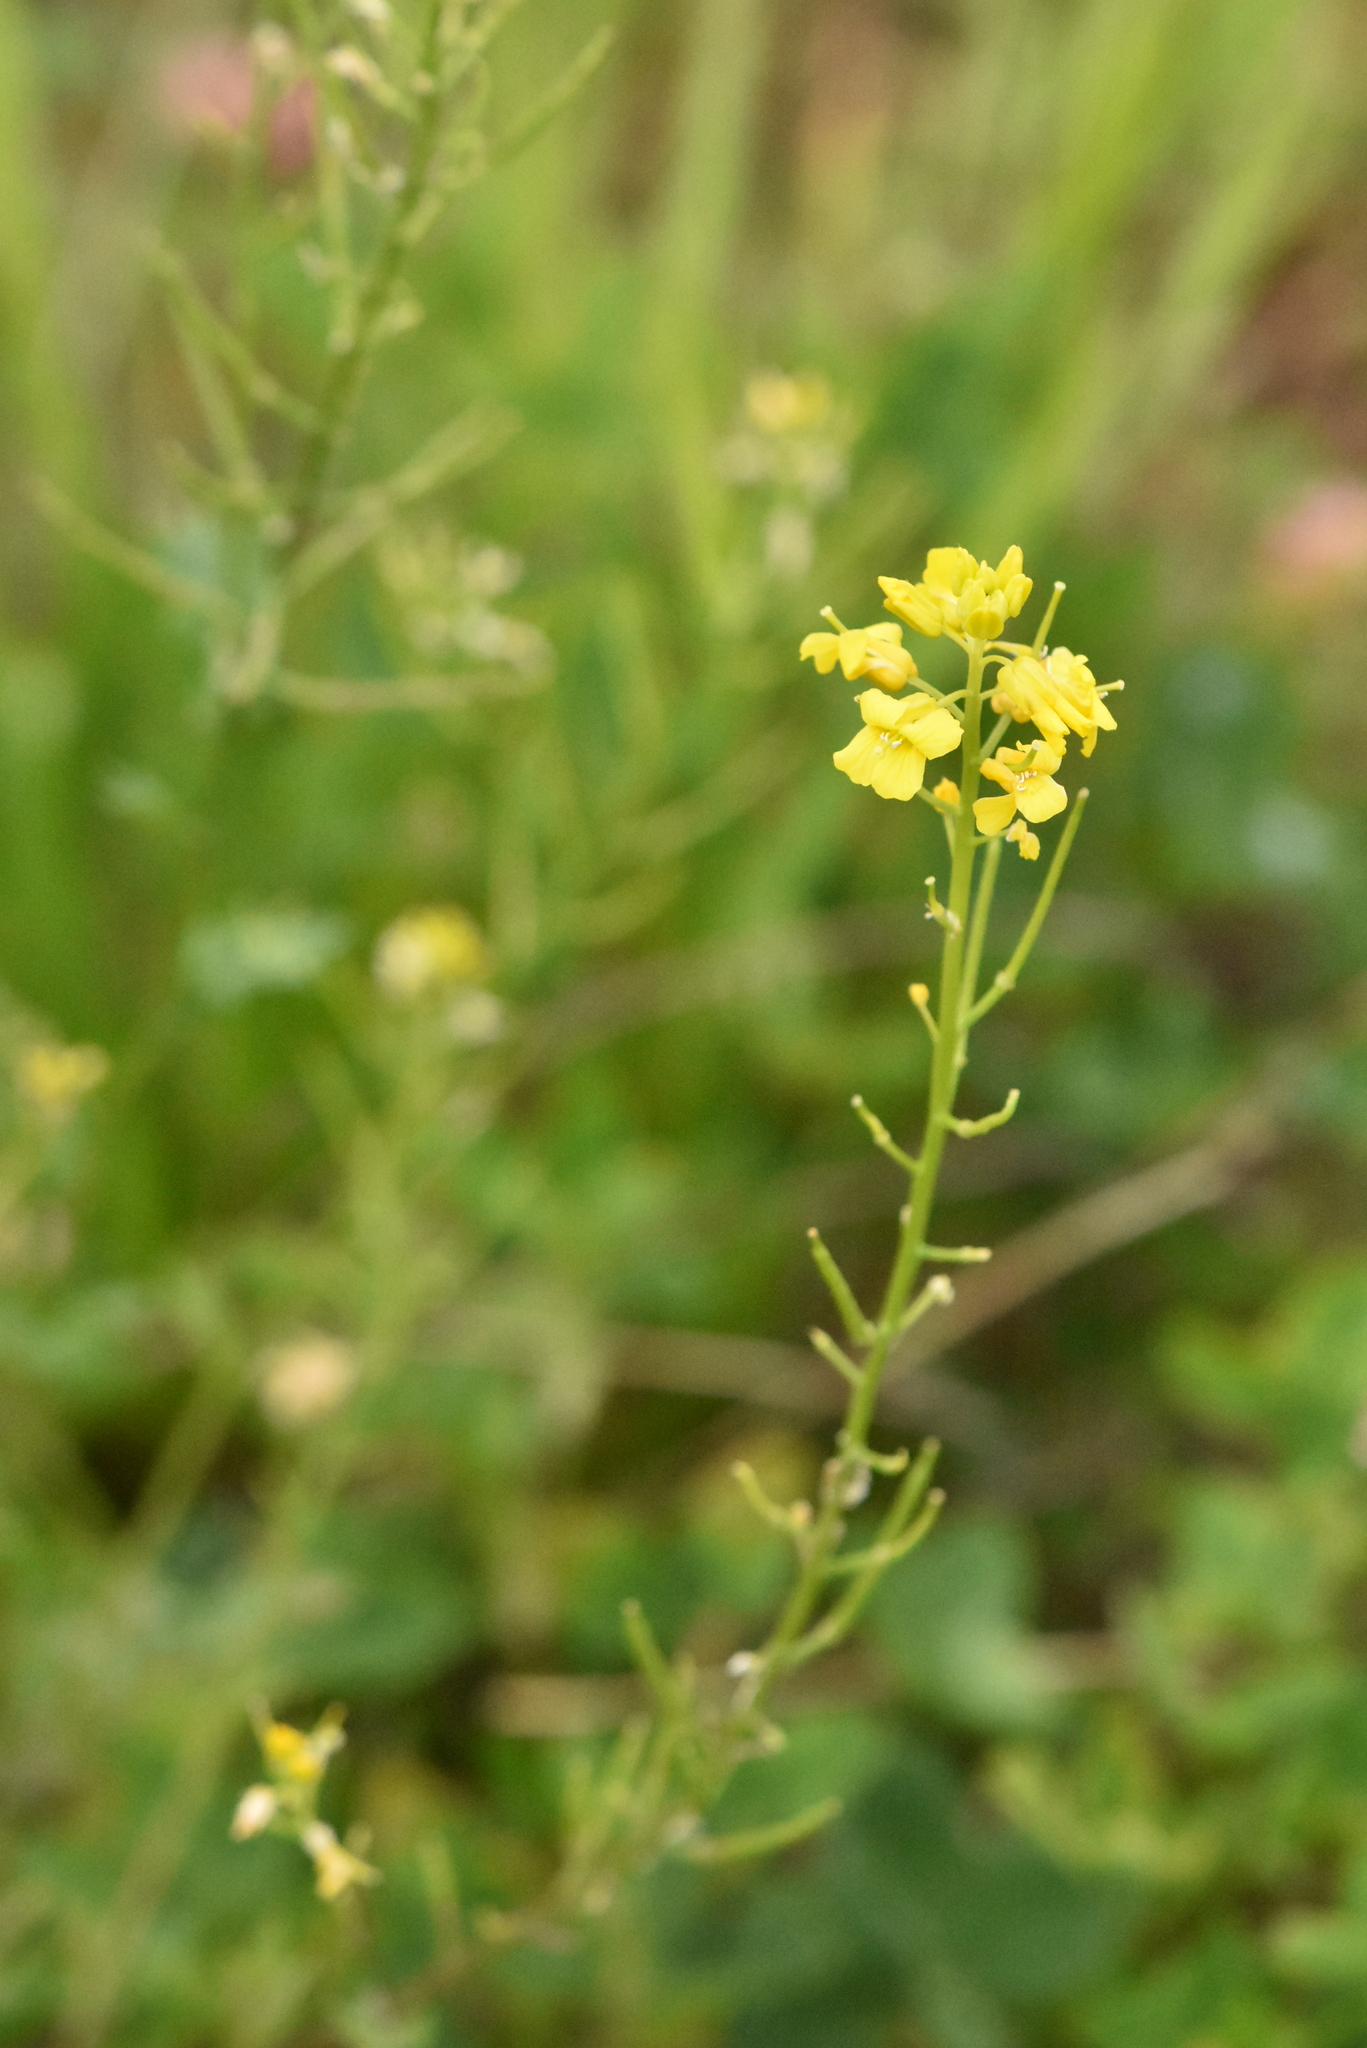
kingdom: Plantae
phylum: Tracheophyta
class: Magnoliopsida
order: Brassicales
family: Brassicaceae
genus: Barbarea
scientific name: Barbarea vulgaris
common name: Cressy-greens
